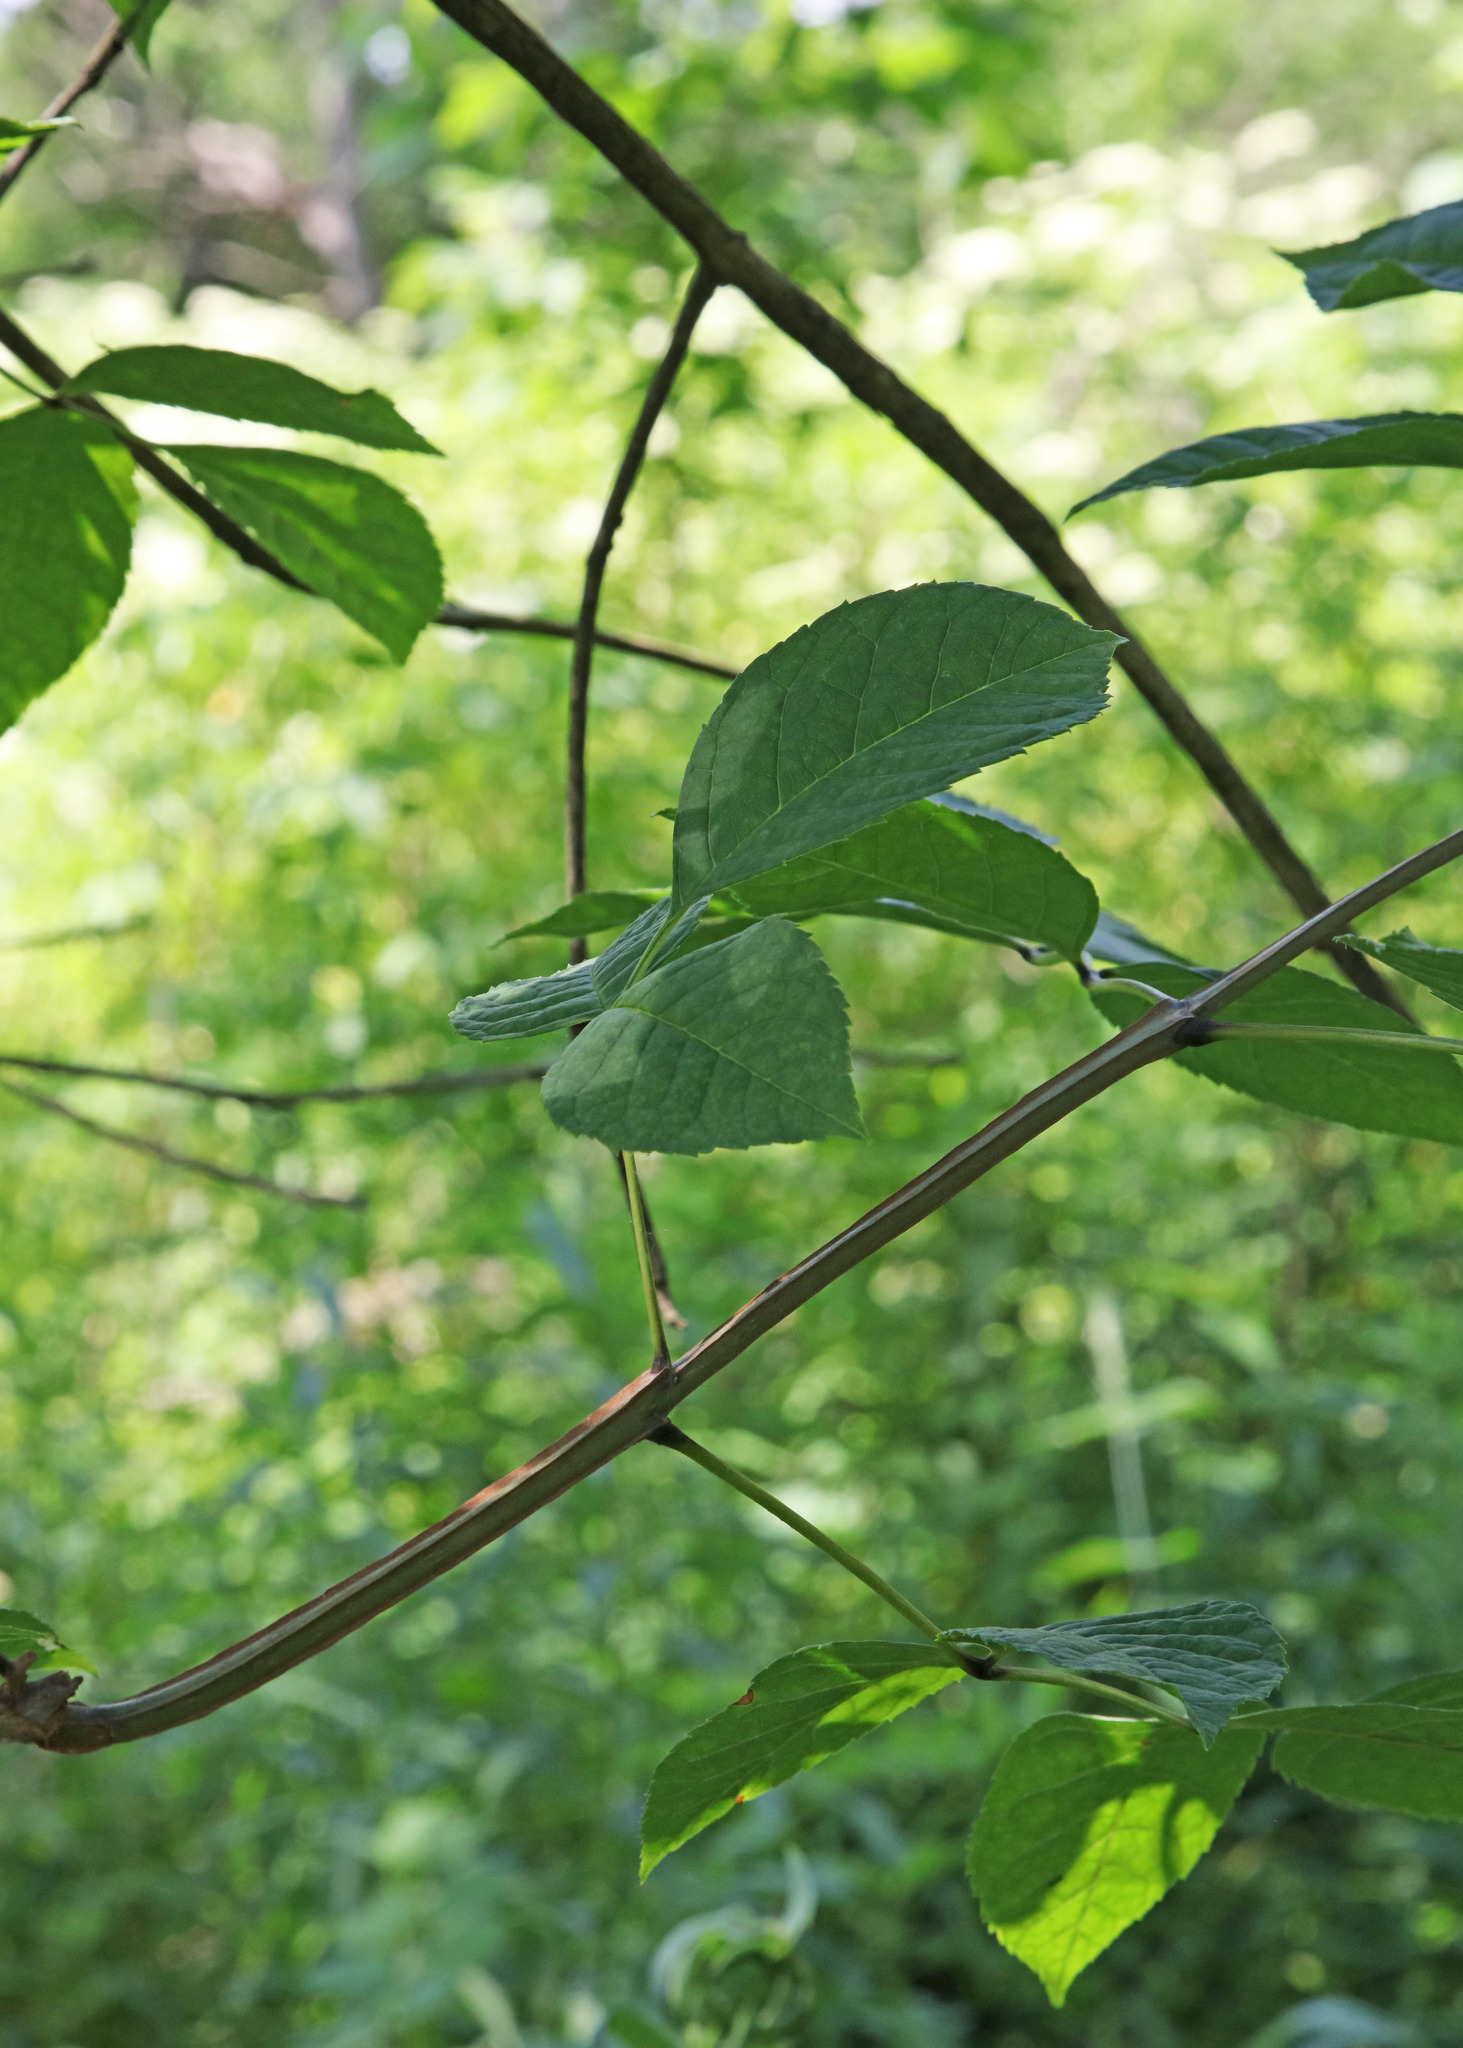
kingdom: Plantae
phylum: Tracheophyta
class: Magnoliopsida
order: Lamiales
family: Oleaceae
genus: Fraxinus
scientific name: Fraxinus quadrangulata
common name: Blue ash
